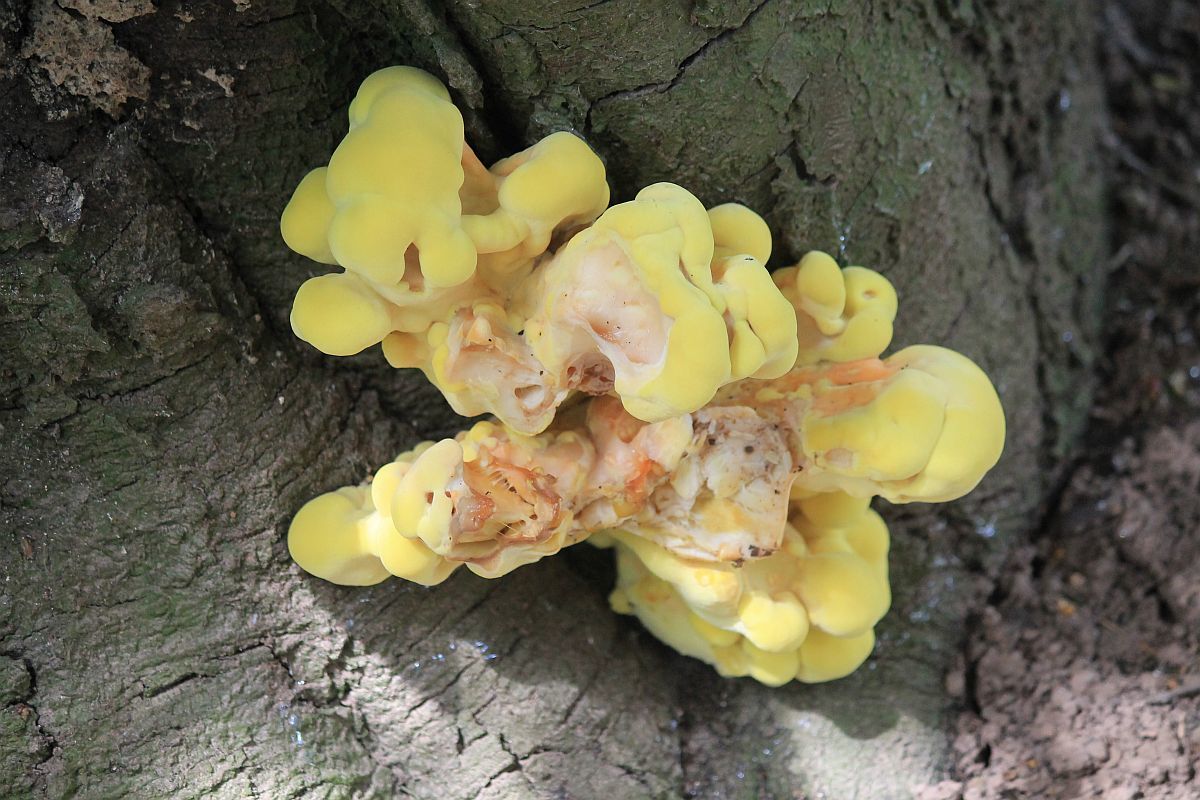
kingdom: Fungi
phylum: Basidiomycota
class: Agaricomycetes
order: Polyporales
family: Laetiporaceae
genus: Laetiporus
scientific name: Laetiporus sulphureus
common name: Chicken of the woods
